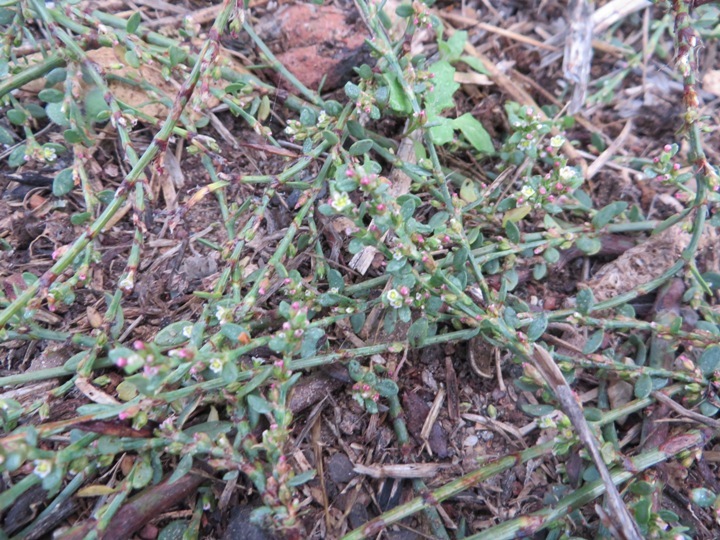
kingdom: Plantae
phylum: Tracheophyta
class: Magnoliopsida
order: Caryophyllales
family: Polygonaceae
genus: Polygonum
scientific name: Polygonum aviculare
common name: Prostrate knotweed
